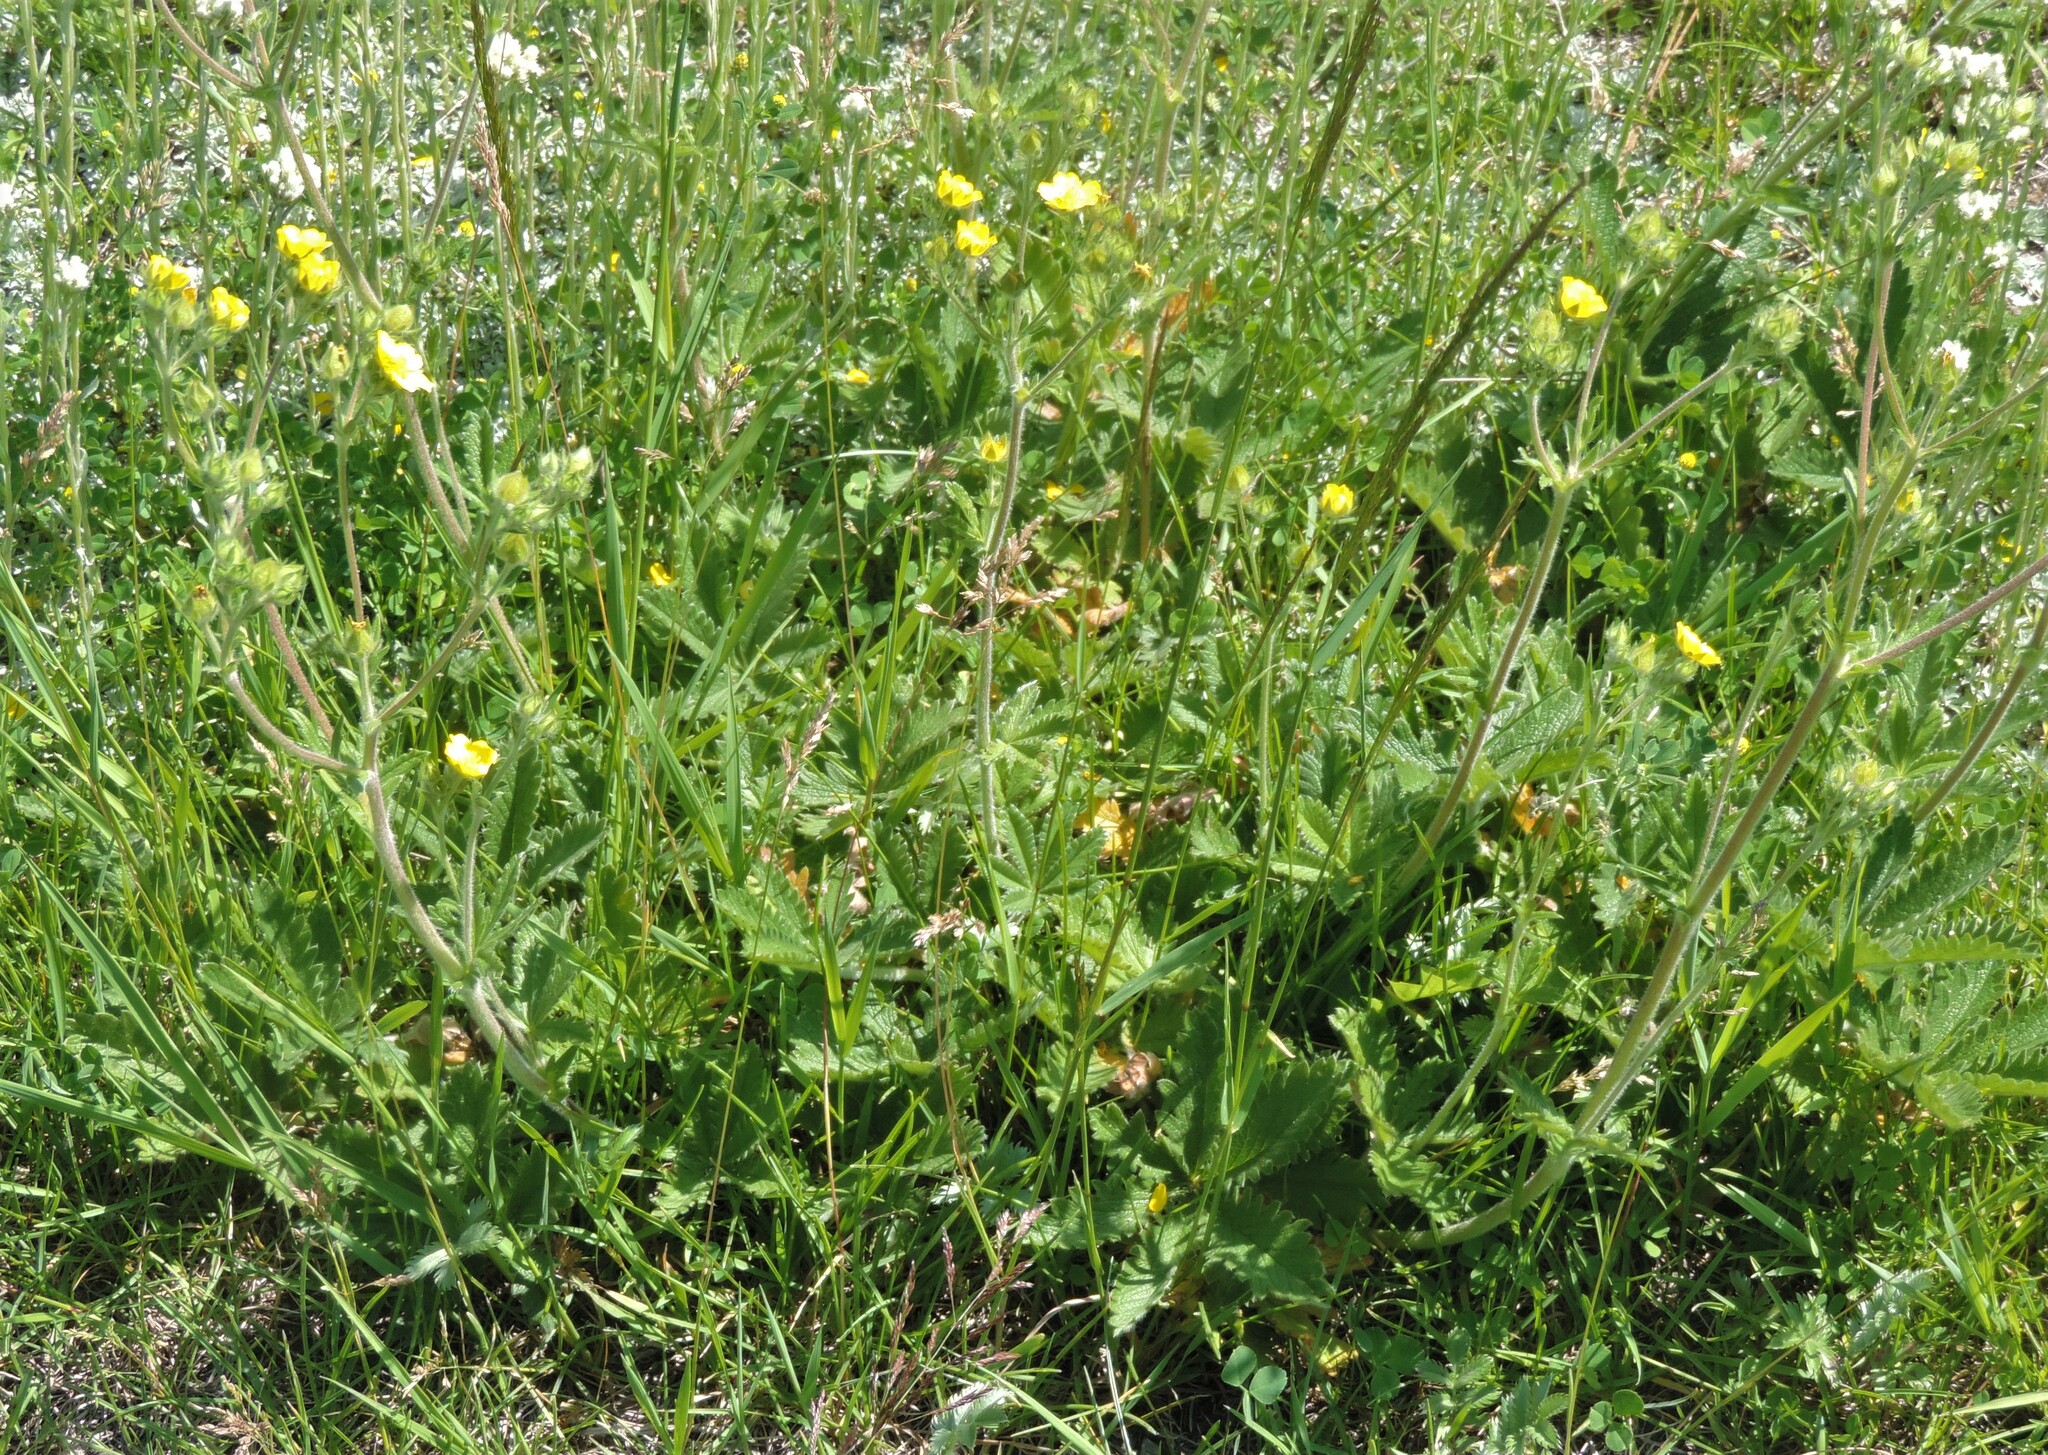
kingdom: Plantae
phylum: Tracheophyta
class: Magnoliopsida
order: Rosales
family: Rosaceae
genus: Potentilla
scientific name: Potentilla gracilis
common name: Graceful cinquefoil
